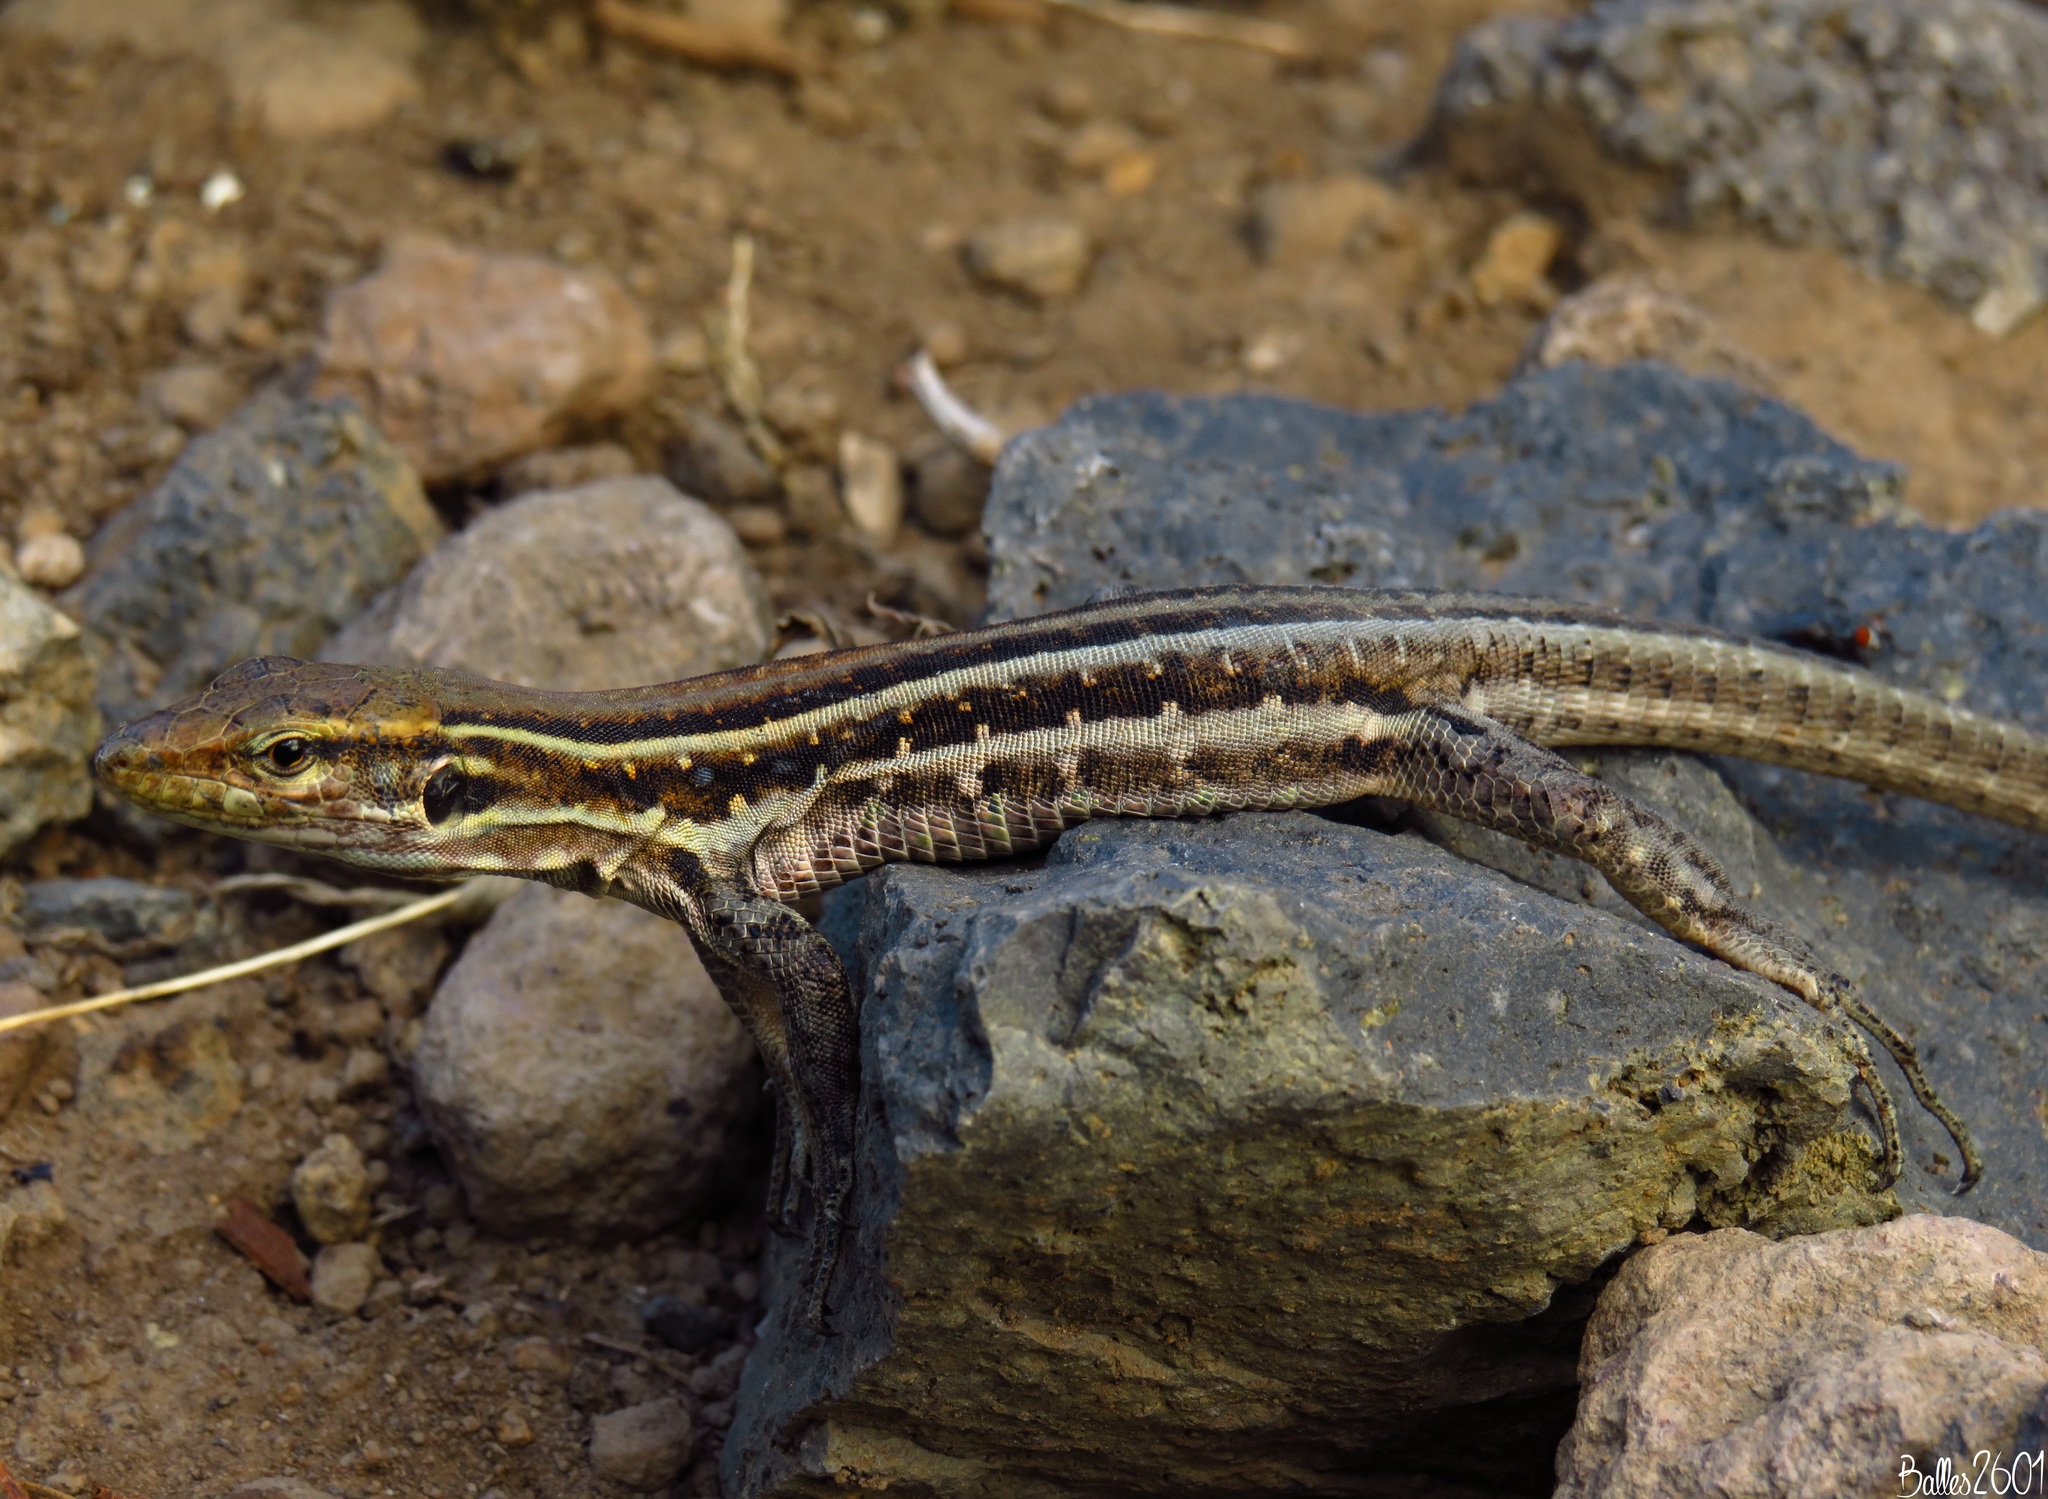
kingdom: Animalia
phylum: Chordata
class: Squamata
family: Lacertidae
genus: Gallotia
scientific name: Gallotia galloti
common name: Gallot's lizard
